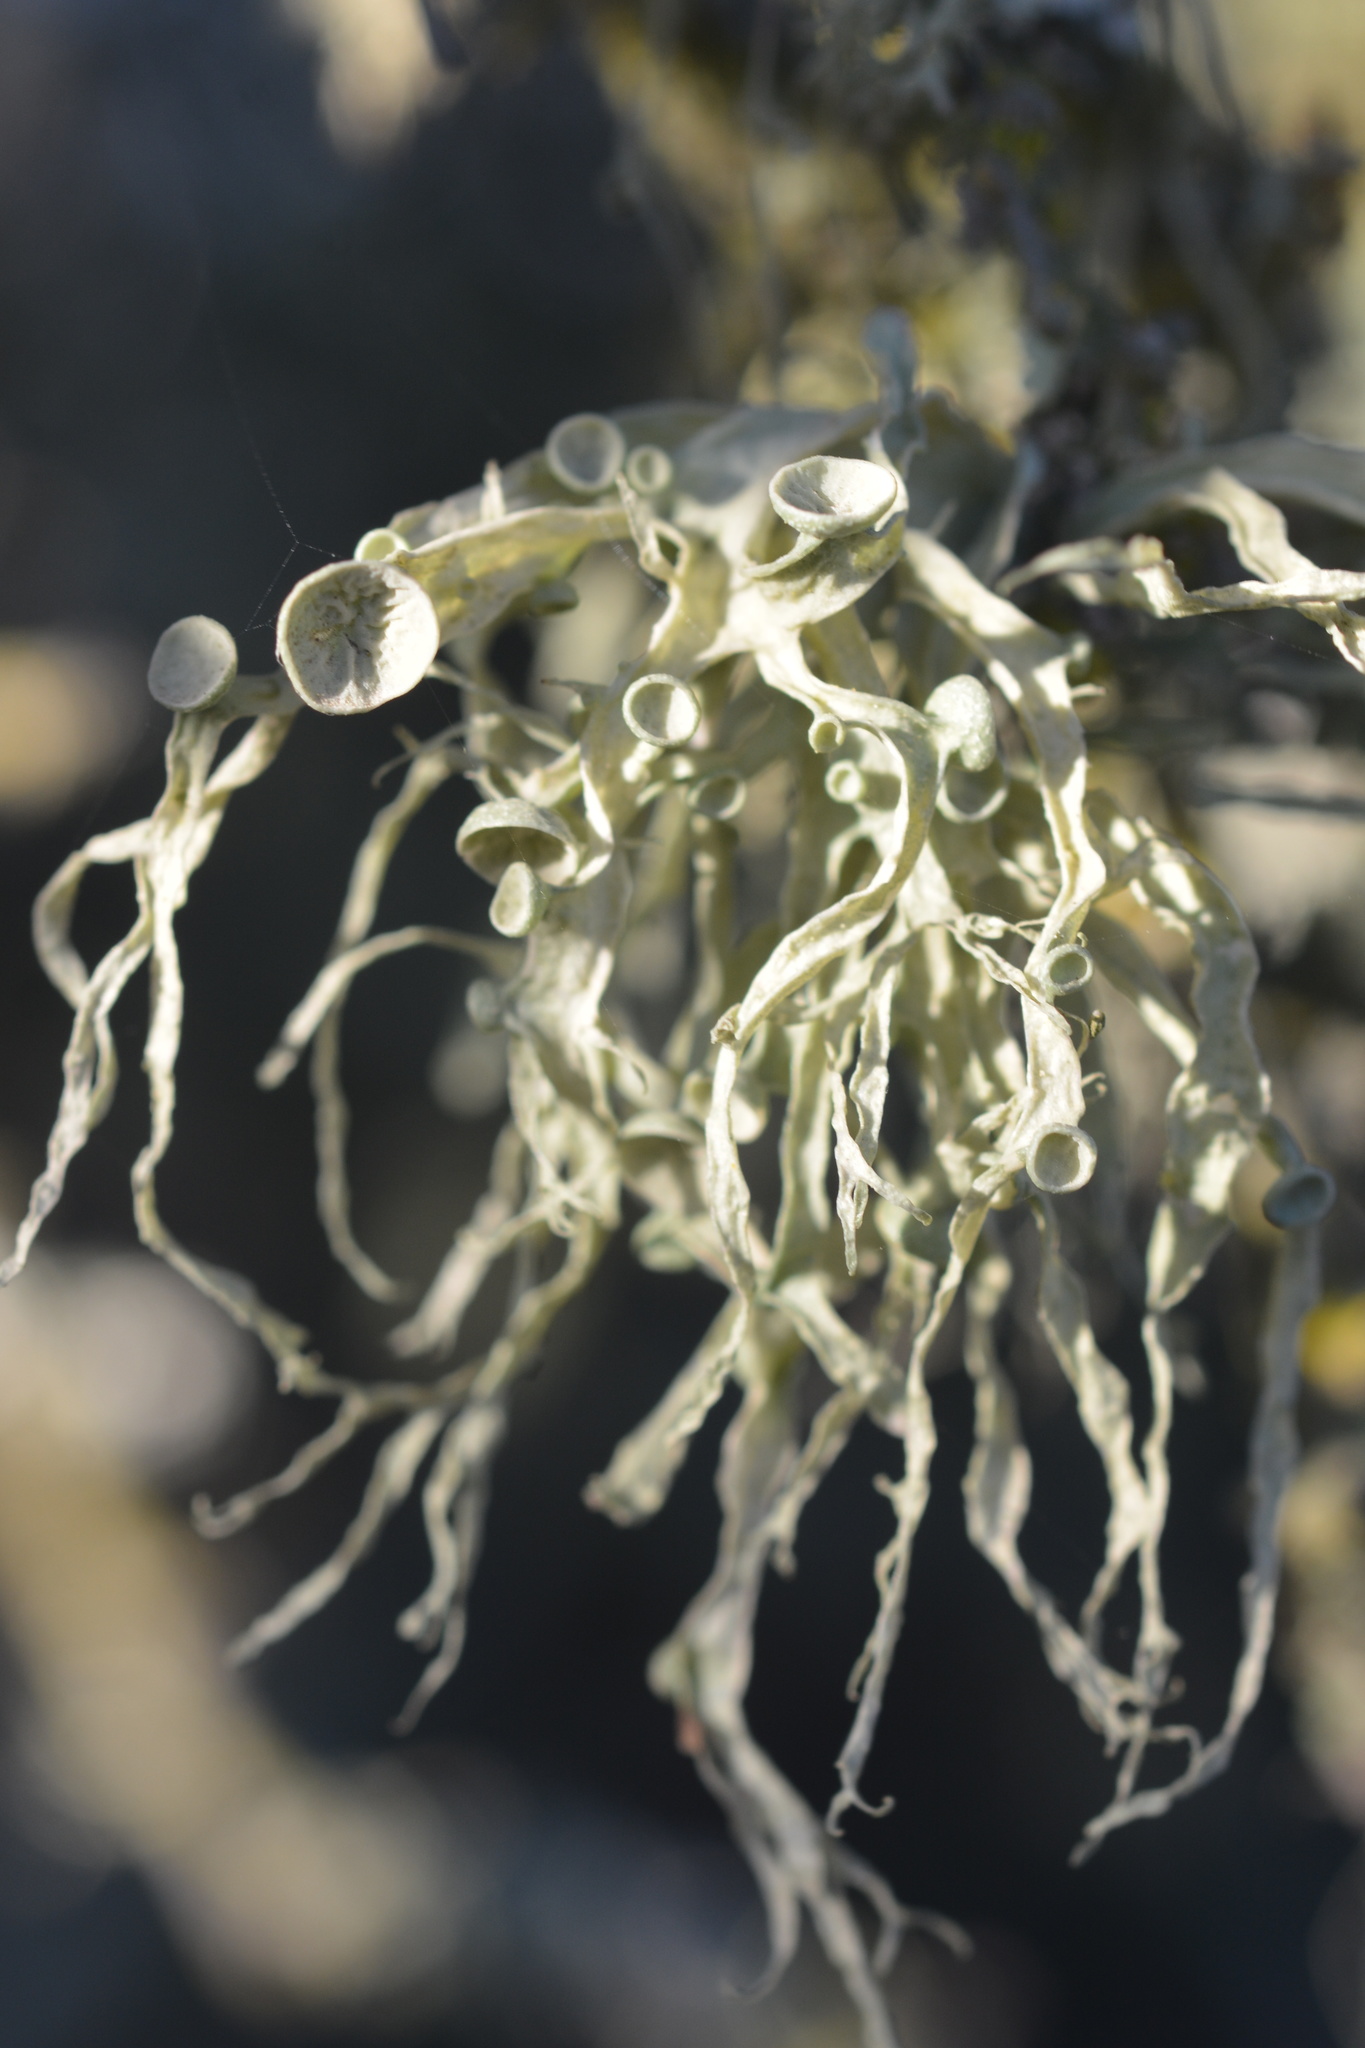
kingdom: Fungi
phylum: Ascomycota
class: Lecanoromycetes
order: Lecanorales
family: Ramalinaceae
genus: Ramalina
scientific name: Ramalina leptocarpha
